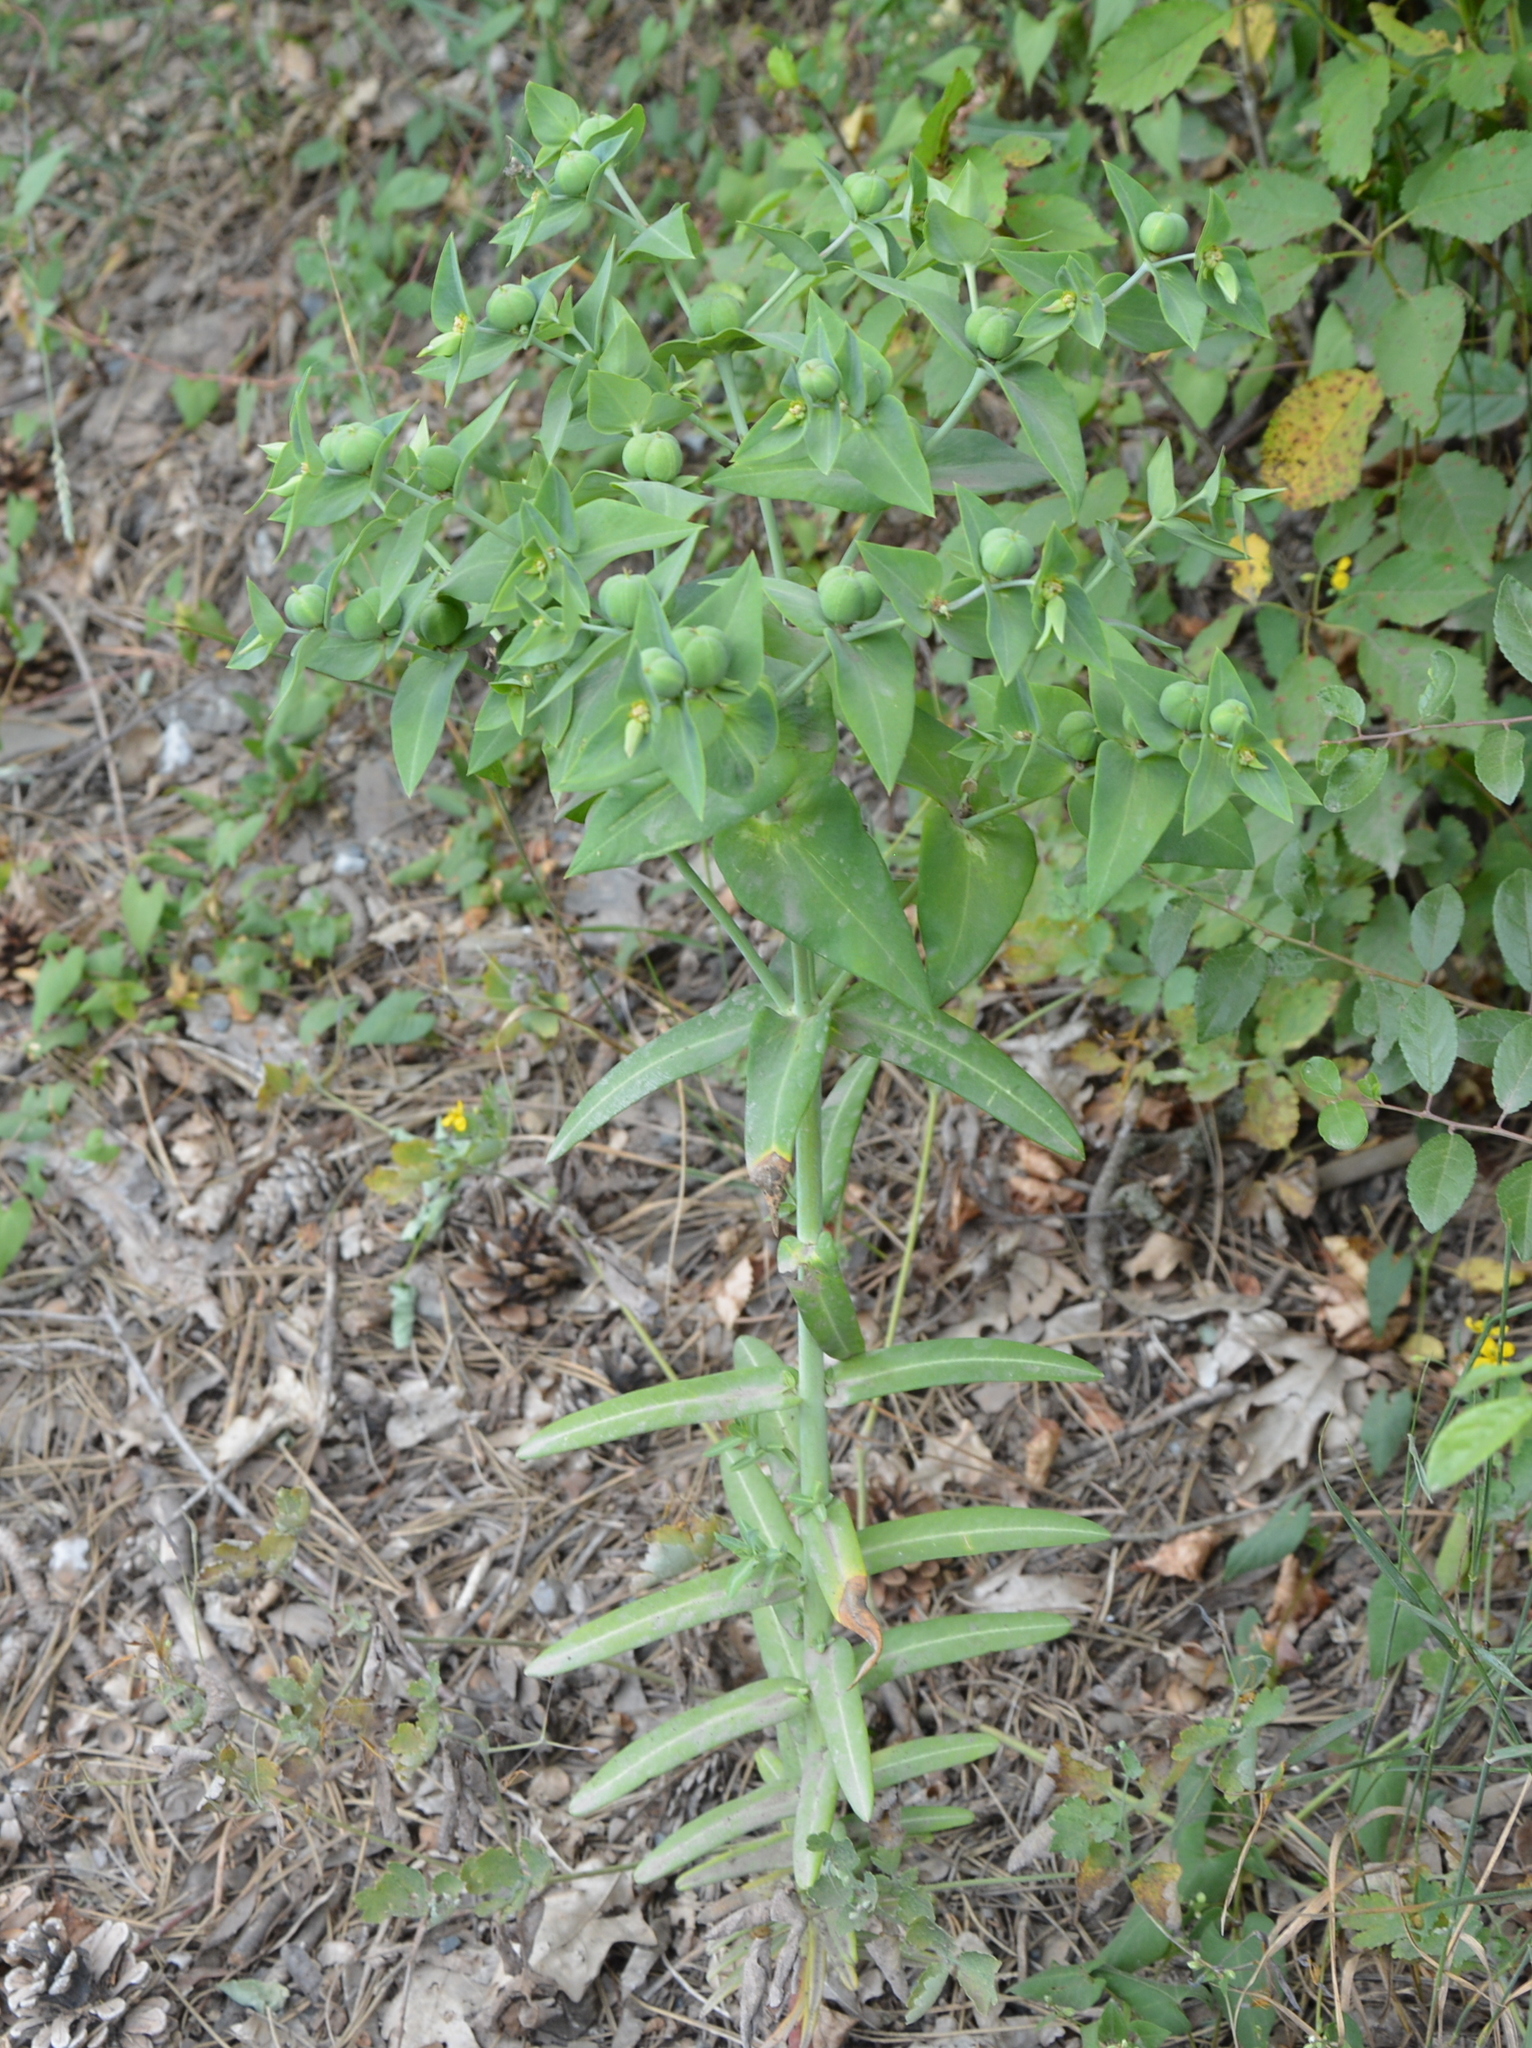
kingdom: Plantae
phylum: Tracheophyta
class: Magnoliopsida
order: Malpighiales
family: Euphorbiaceae
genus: Euphorbia
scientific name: Euphorbia lathyris
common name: Caper spurge
